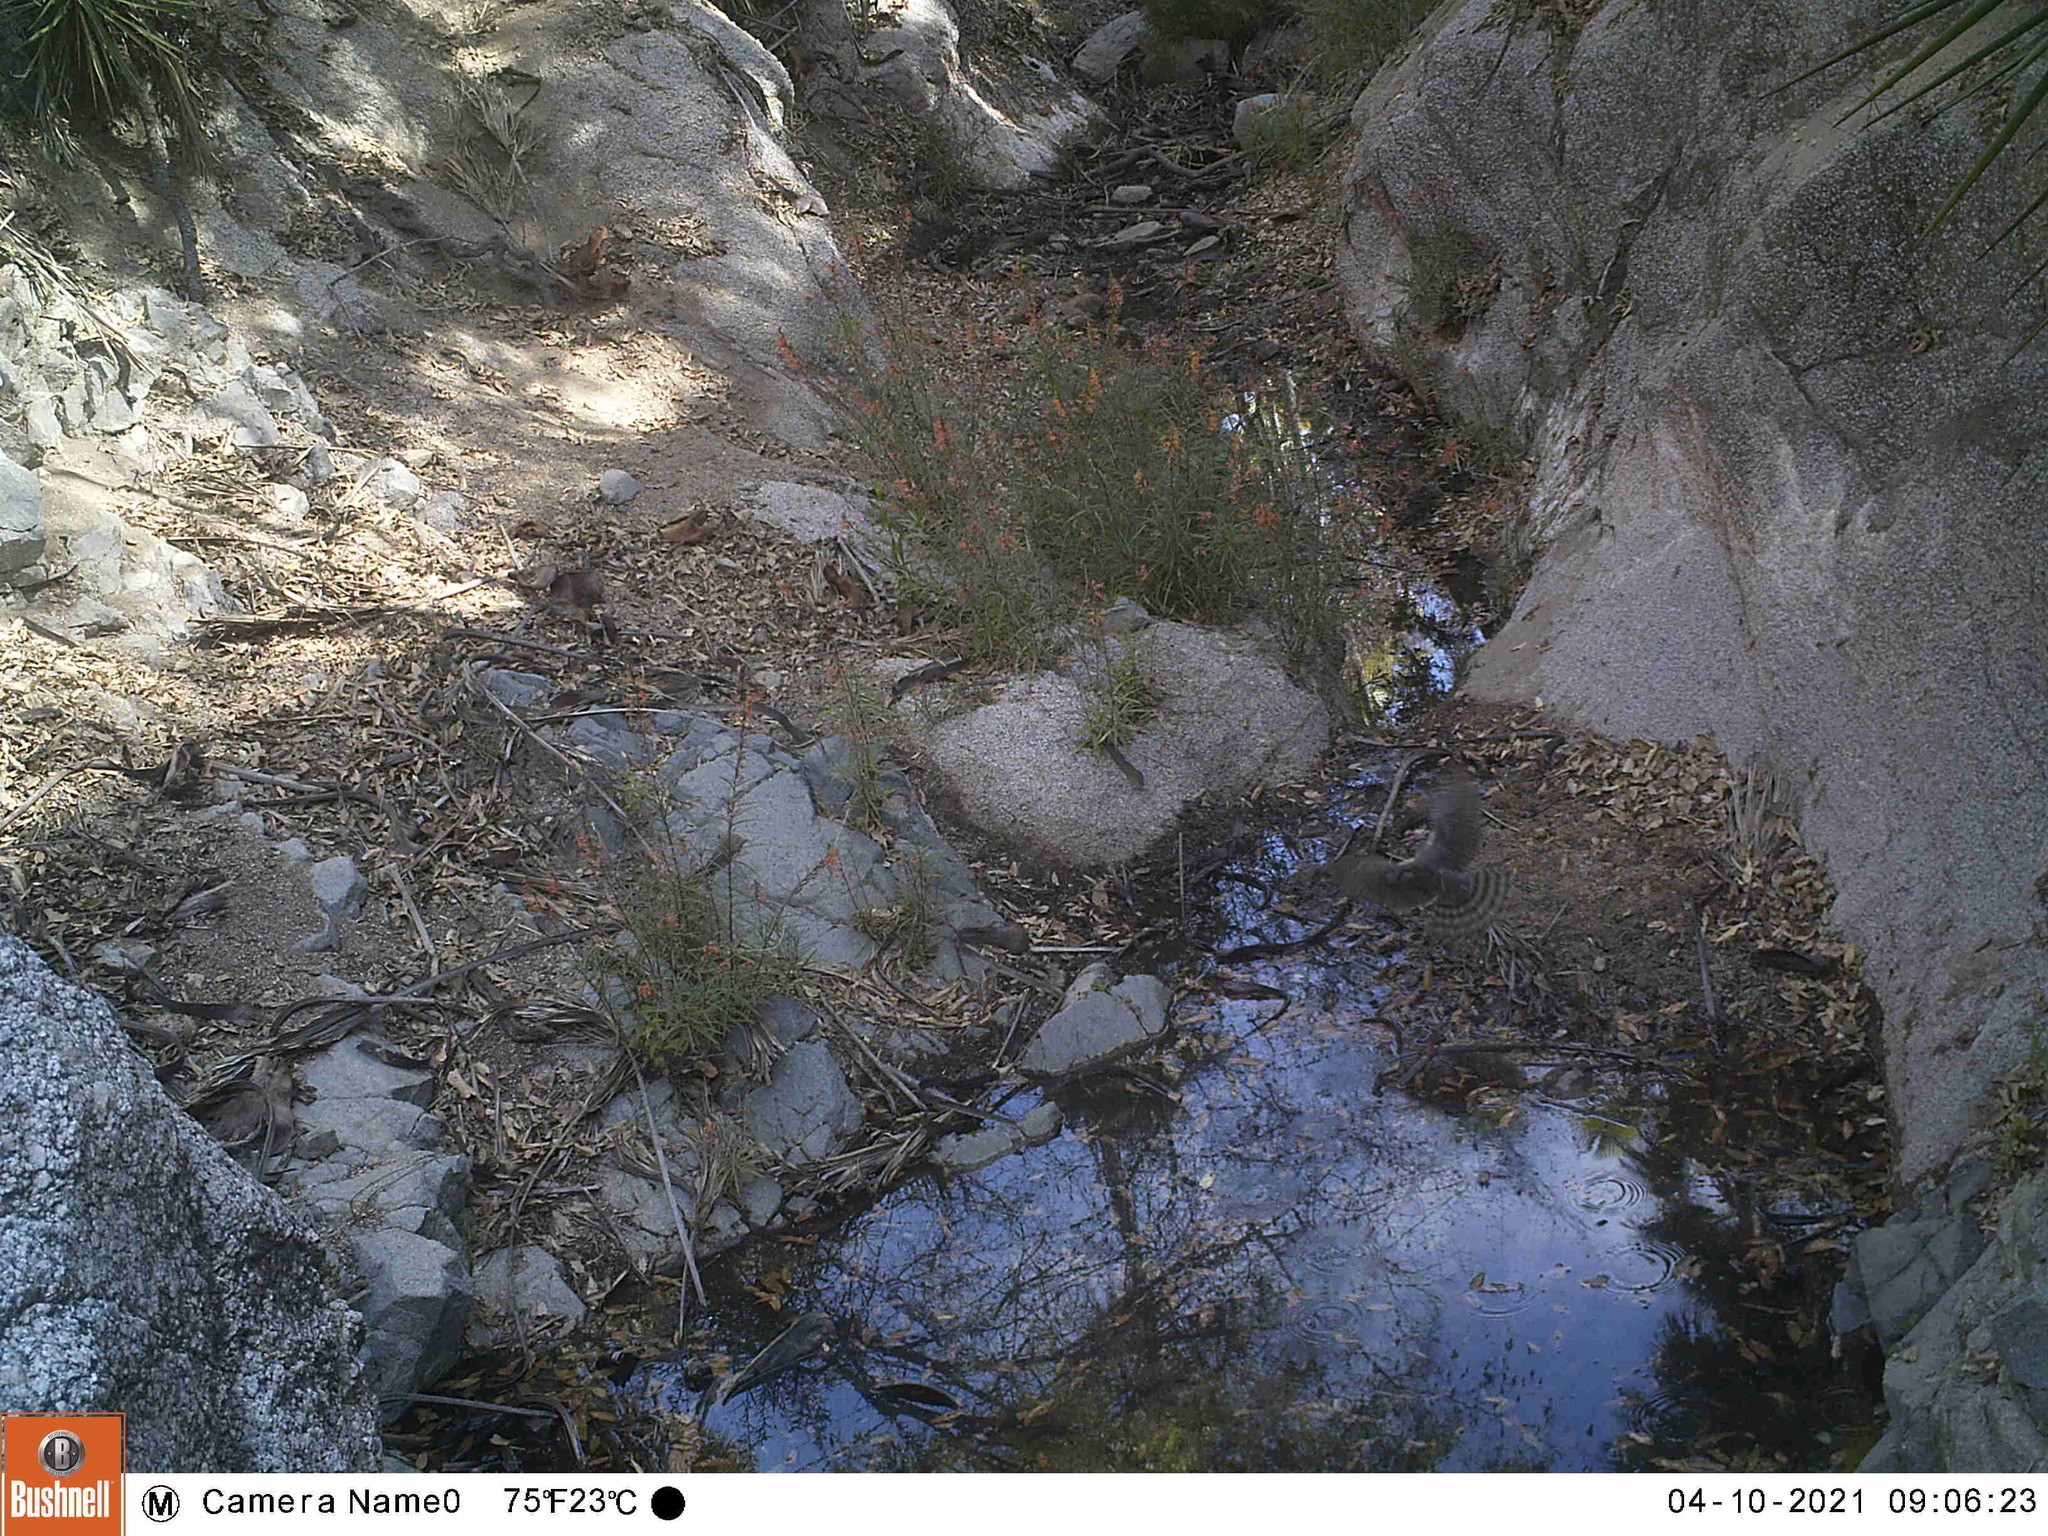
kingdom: Animalia
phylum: Chordata
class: Aves
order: Falconiformes
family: Falconidae
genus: Falco
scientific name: Falco columbarius
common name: Merlin
